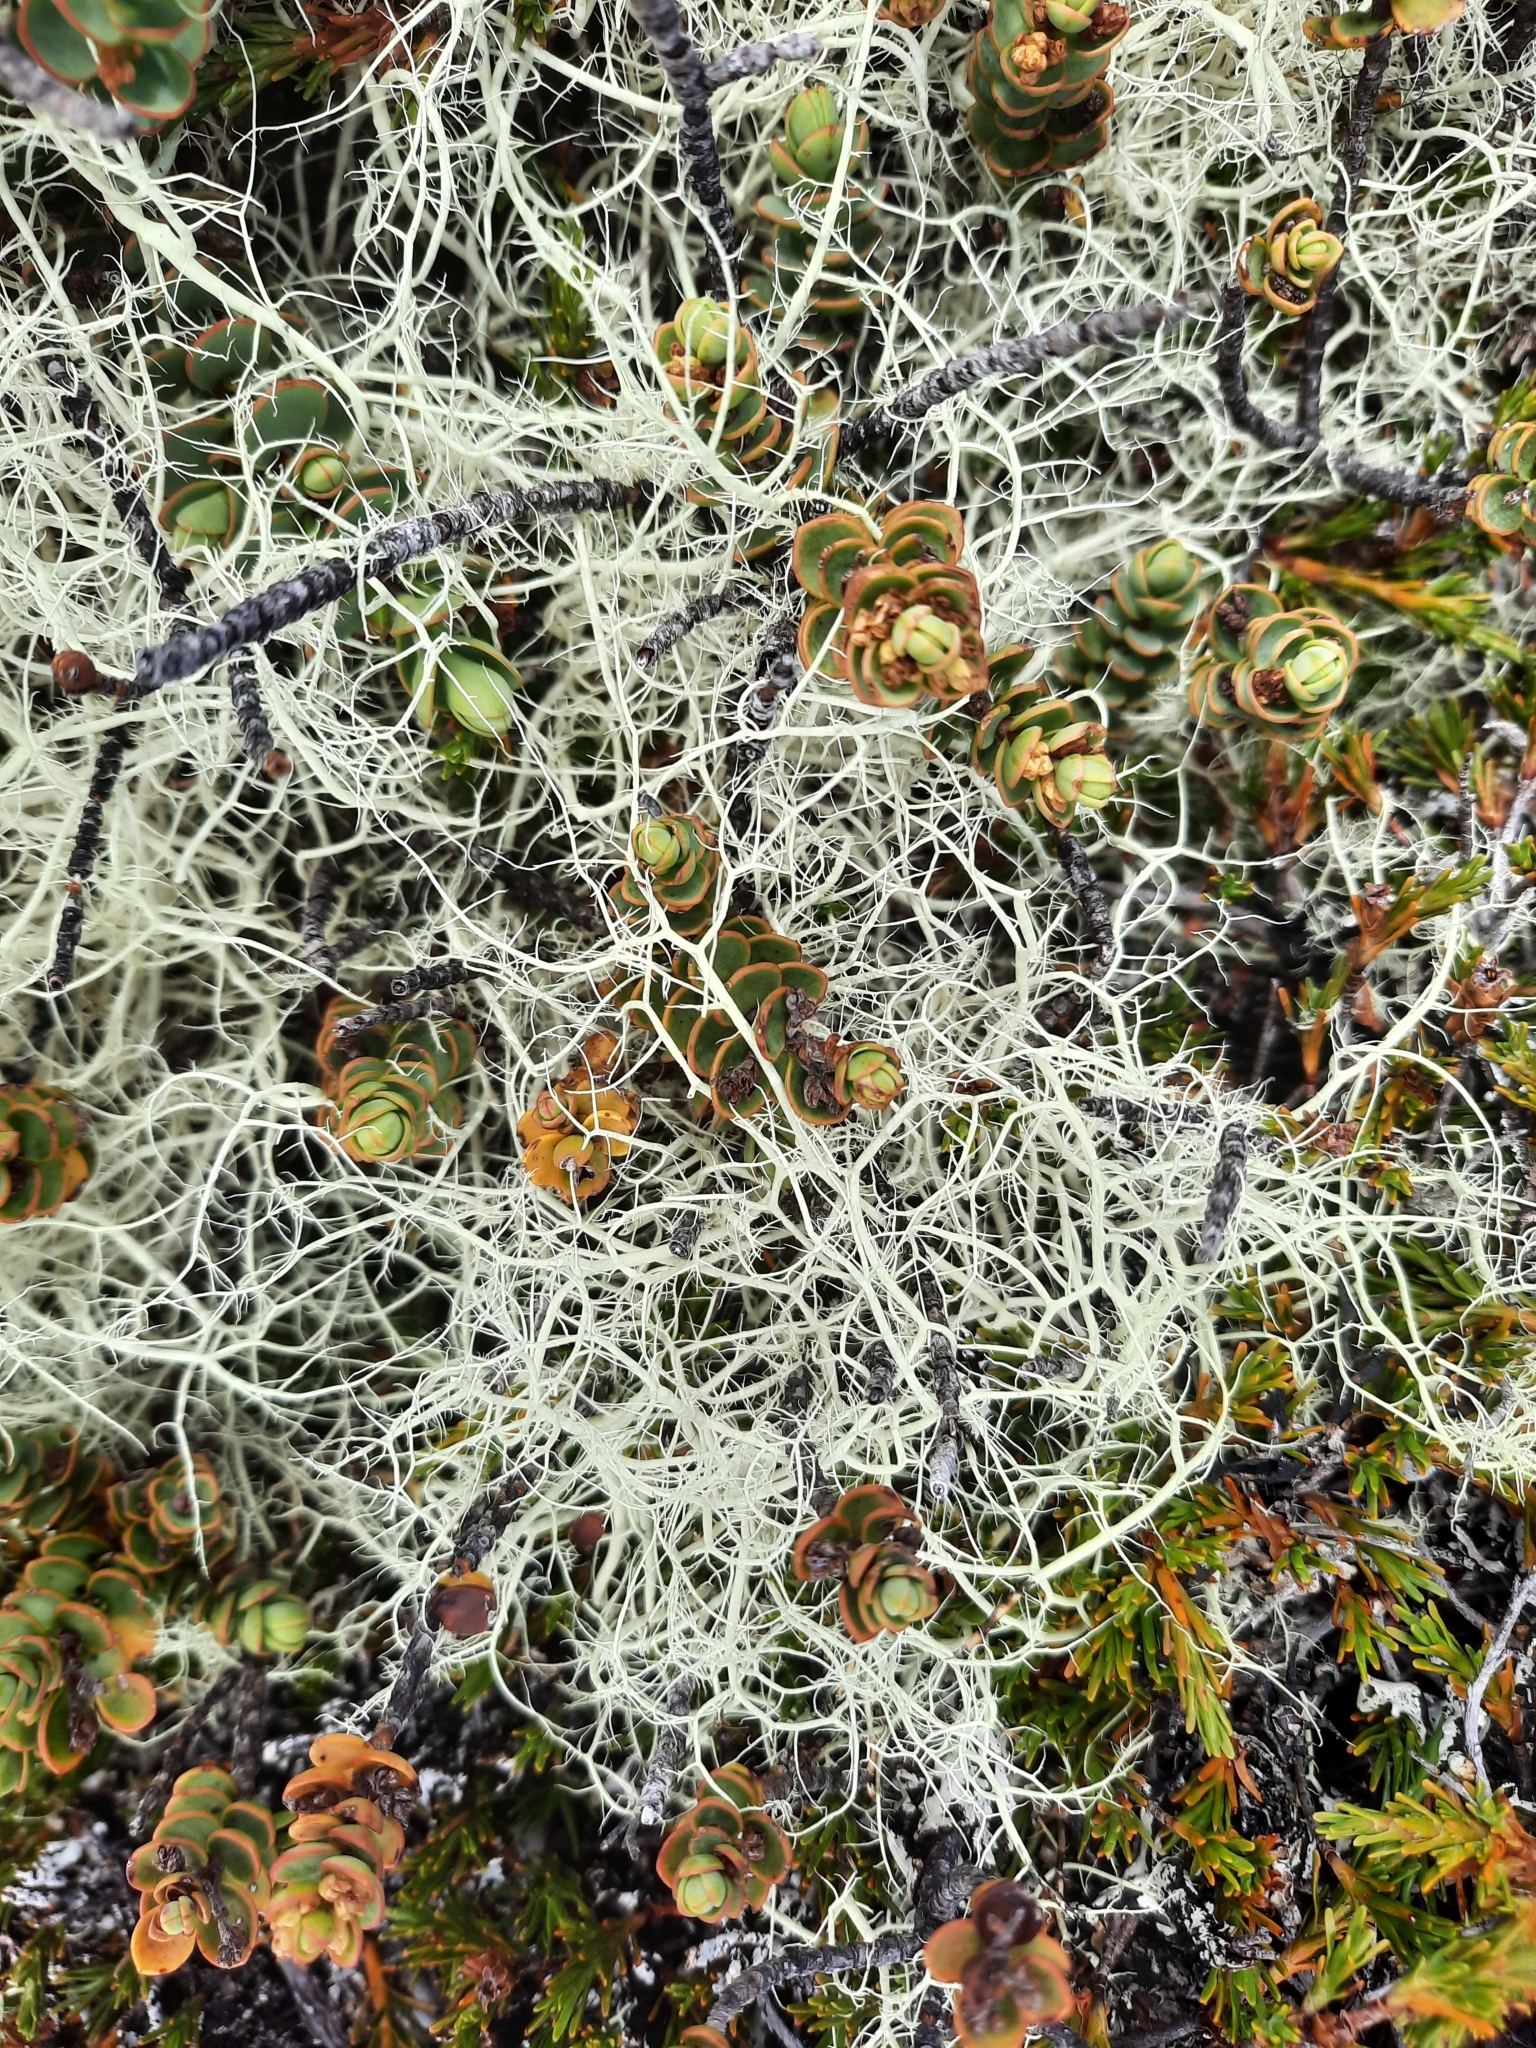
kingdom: Fungi
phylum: Ascomycota
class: Lecanoromycetes
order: Lecanorales
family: Parmeliaceae
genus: Usnea
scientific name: Usnea contexta
